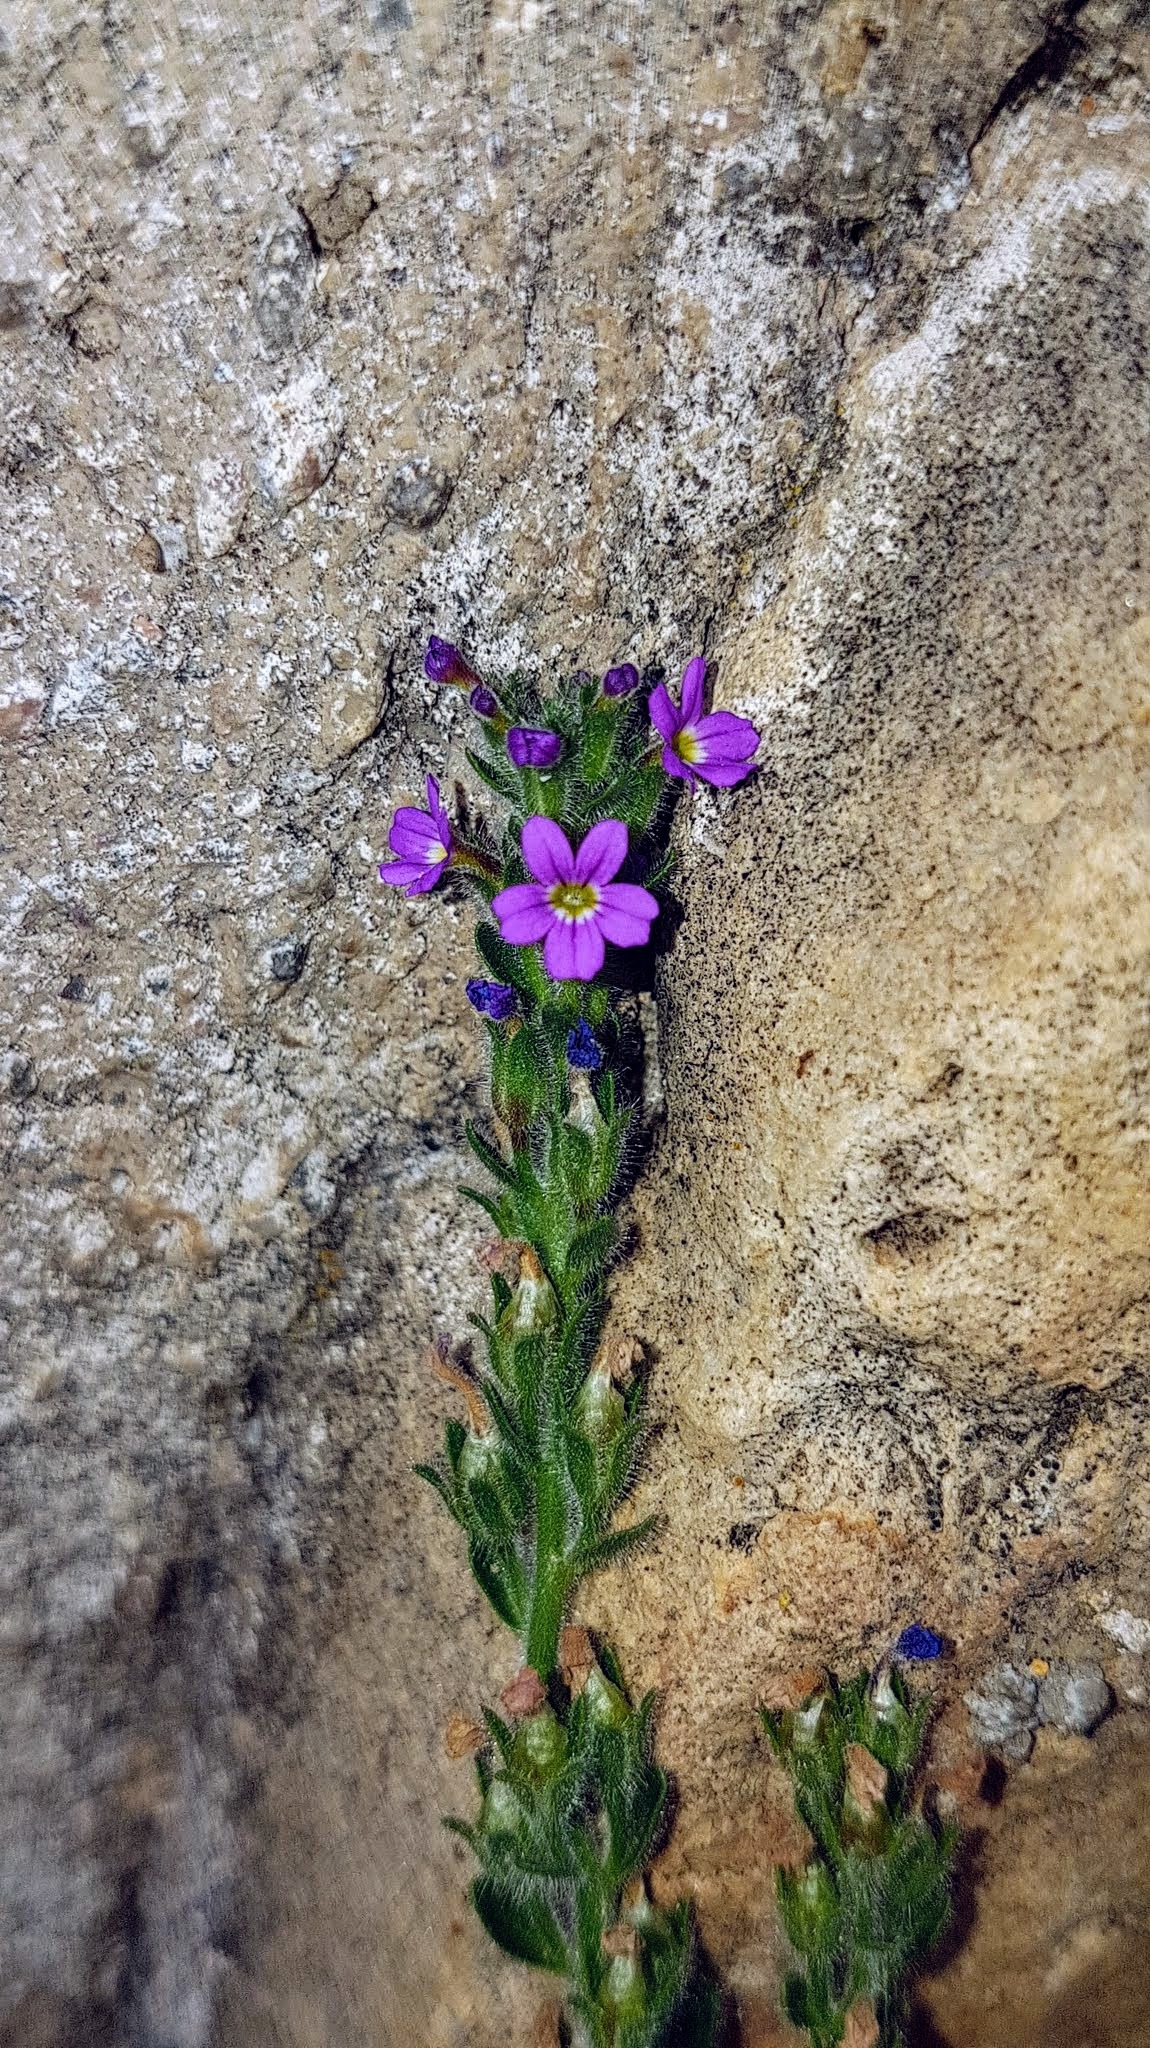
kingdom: Plantae
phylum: Tracheophyta
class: Magnoliopsida
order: Lamiales
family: Plantaginaceae
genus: Erinus
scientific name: Erinus alpinus
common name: Fairy foxglove
